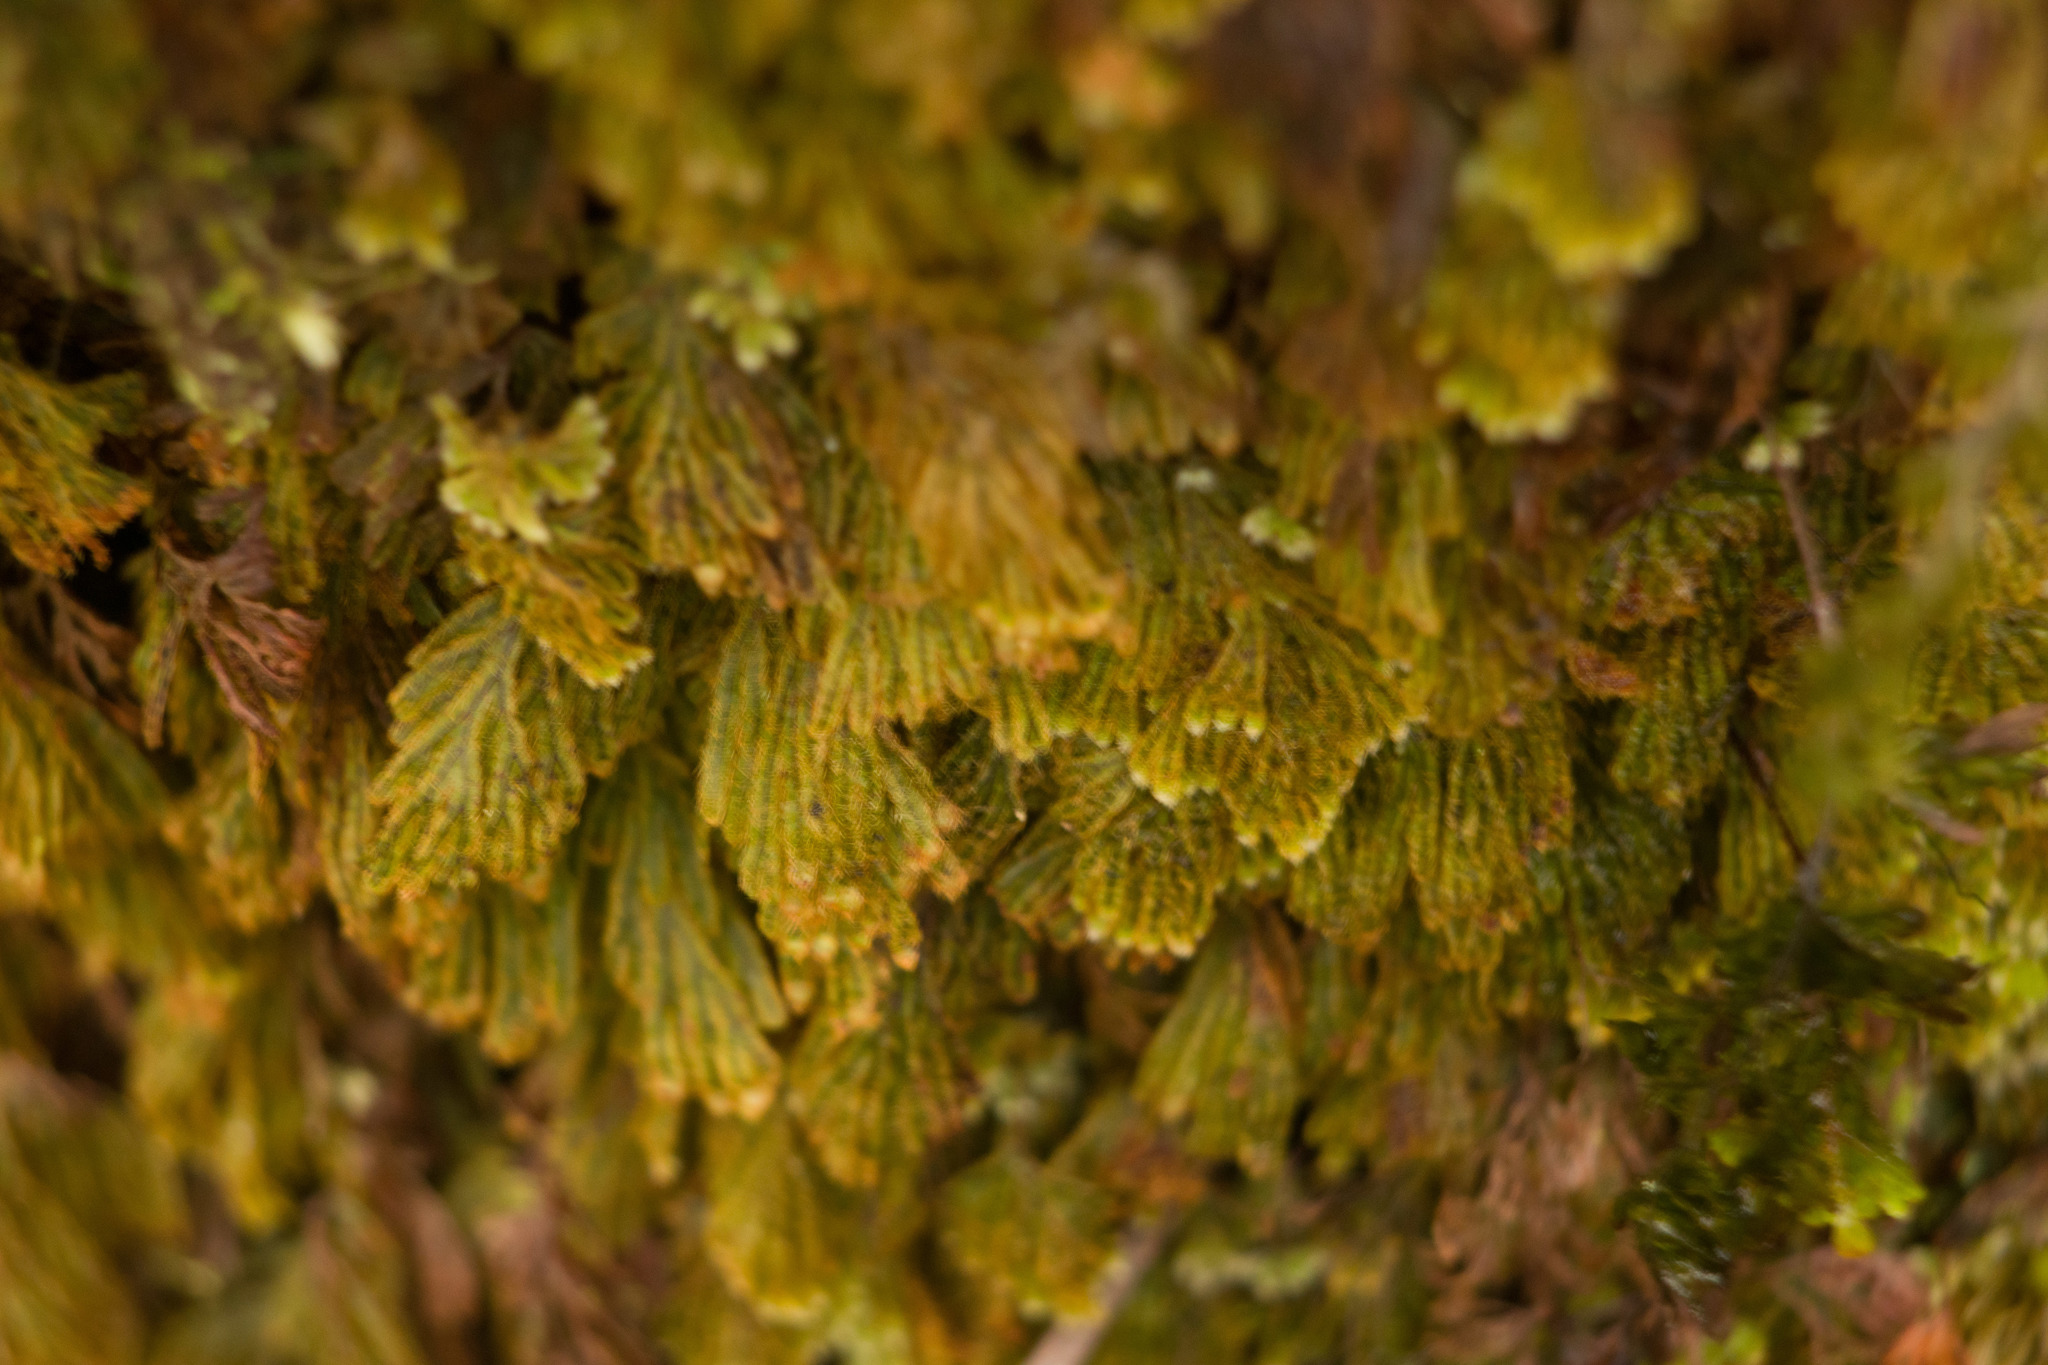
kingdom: Plantae
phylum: Tracheophyta
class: Polypodiopsida
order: Hymenophyllales
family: Hymenophyllaceae
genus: Hymenophyllum
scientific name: Hymenophyllum obtusum
